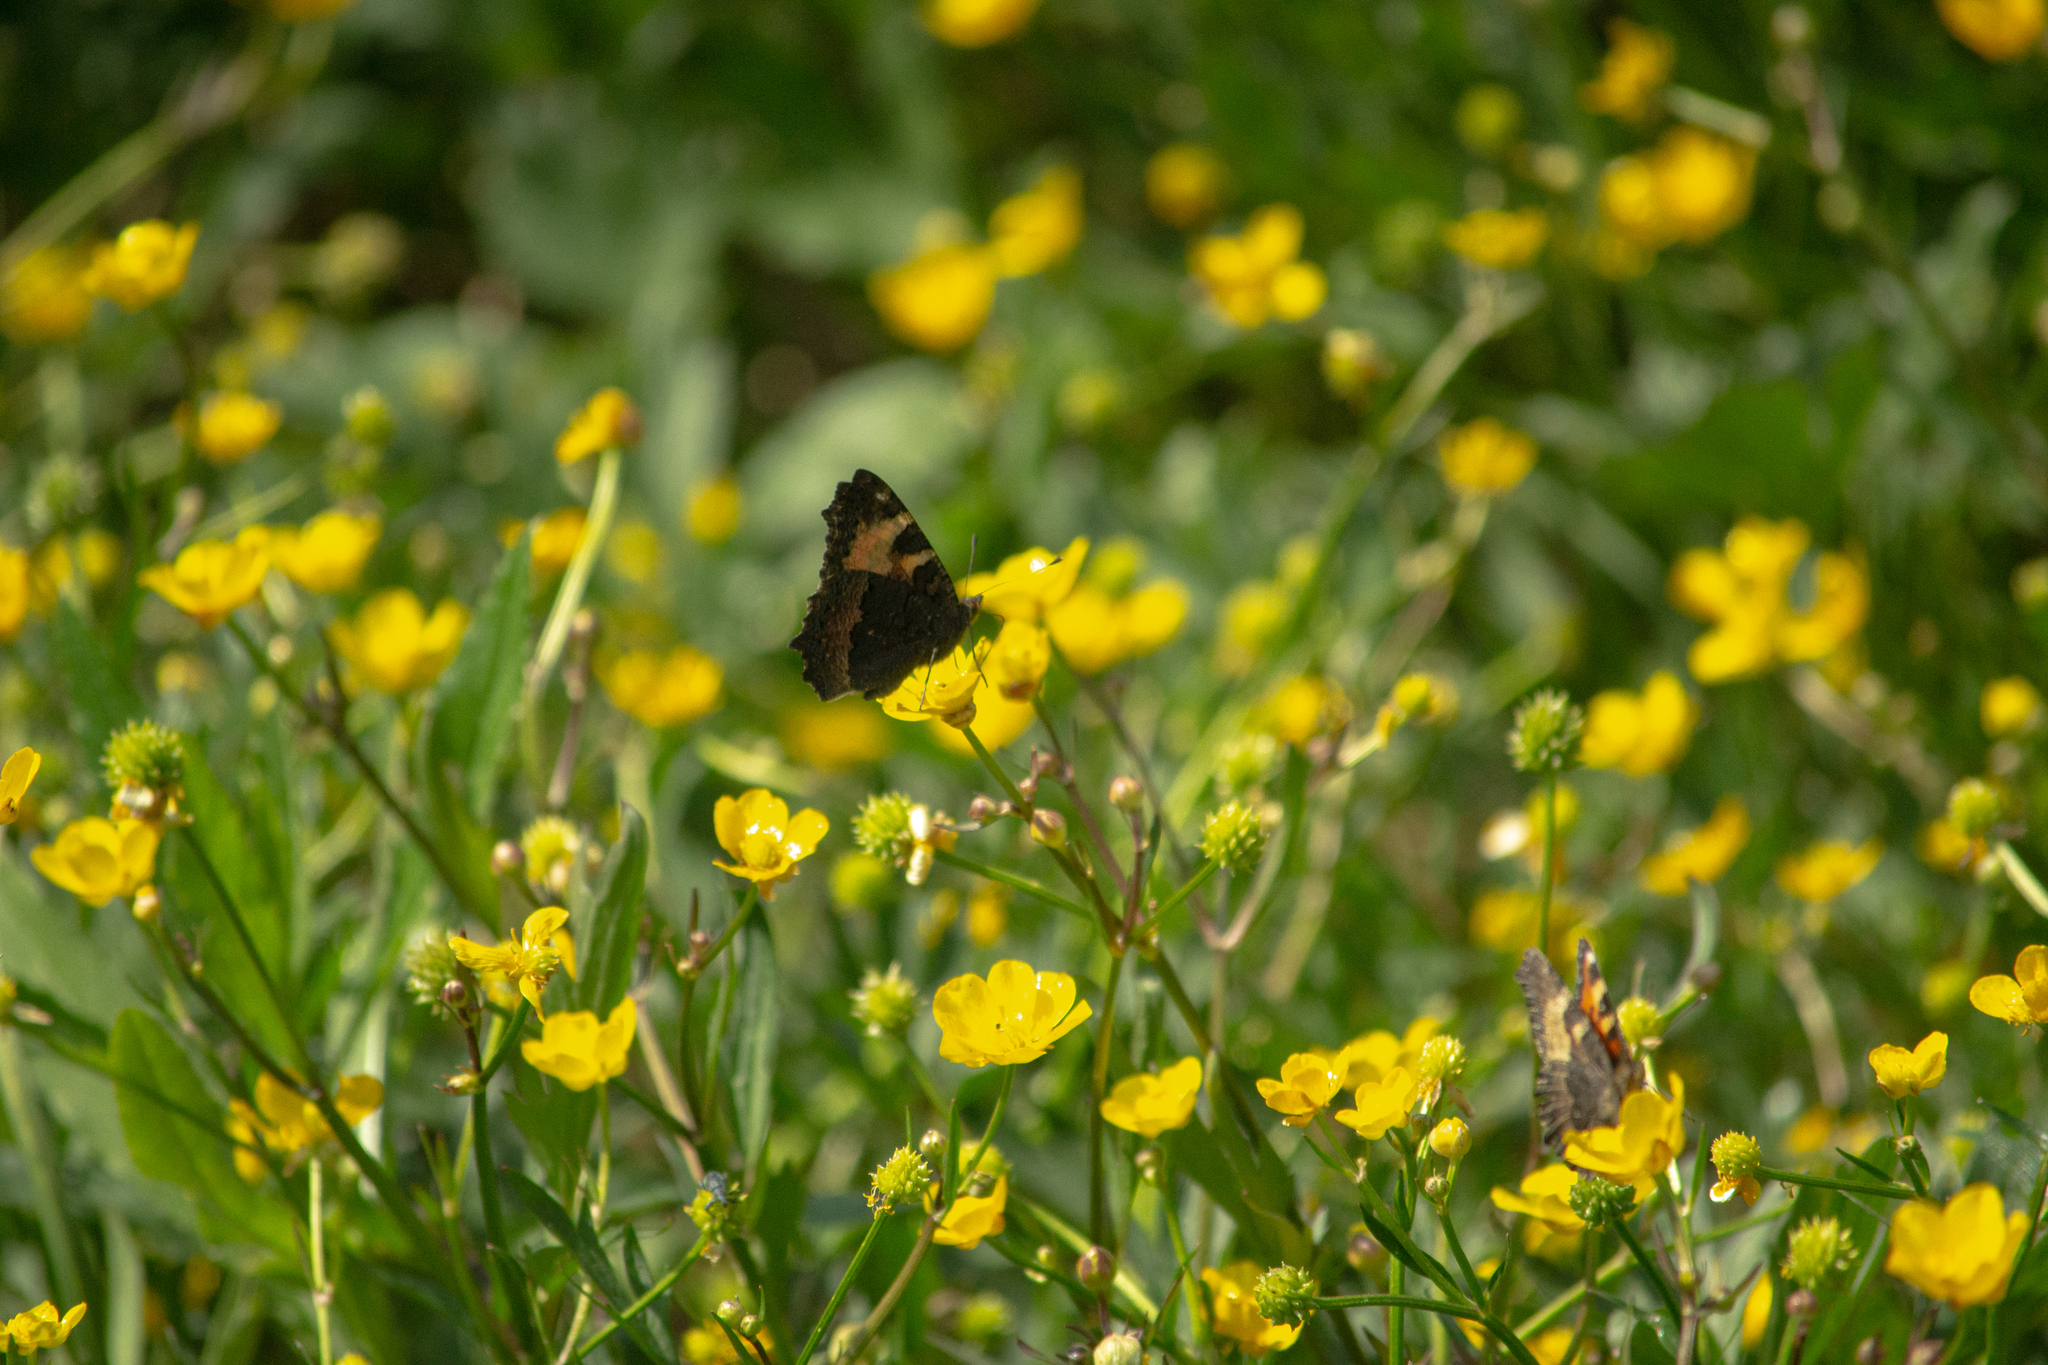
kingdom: Animalia
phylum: Arthropoda
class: Insecta
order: Lepidoptera
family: Nymphalidae
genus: Aglais
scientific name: Aglais urticae
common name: Small tortoiseshell
